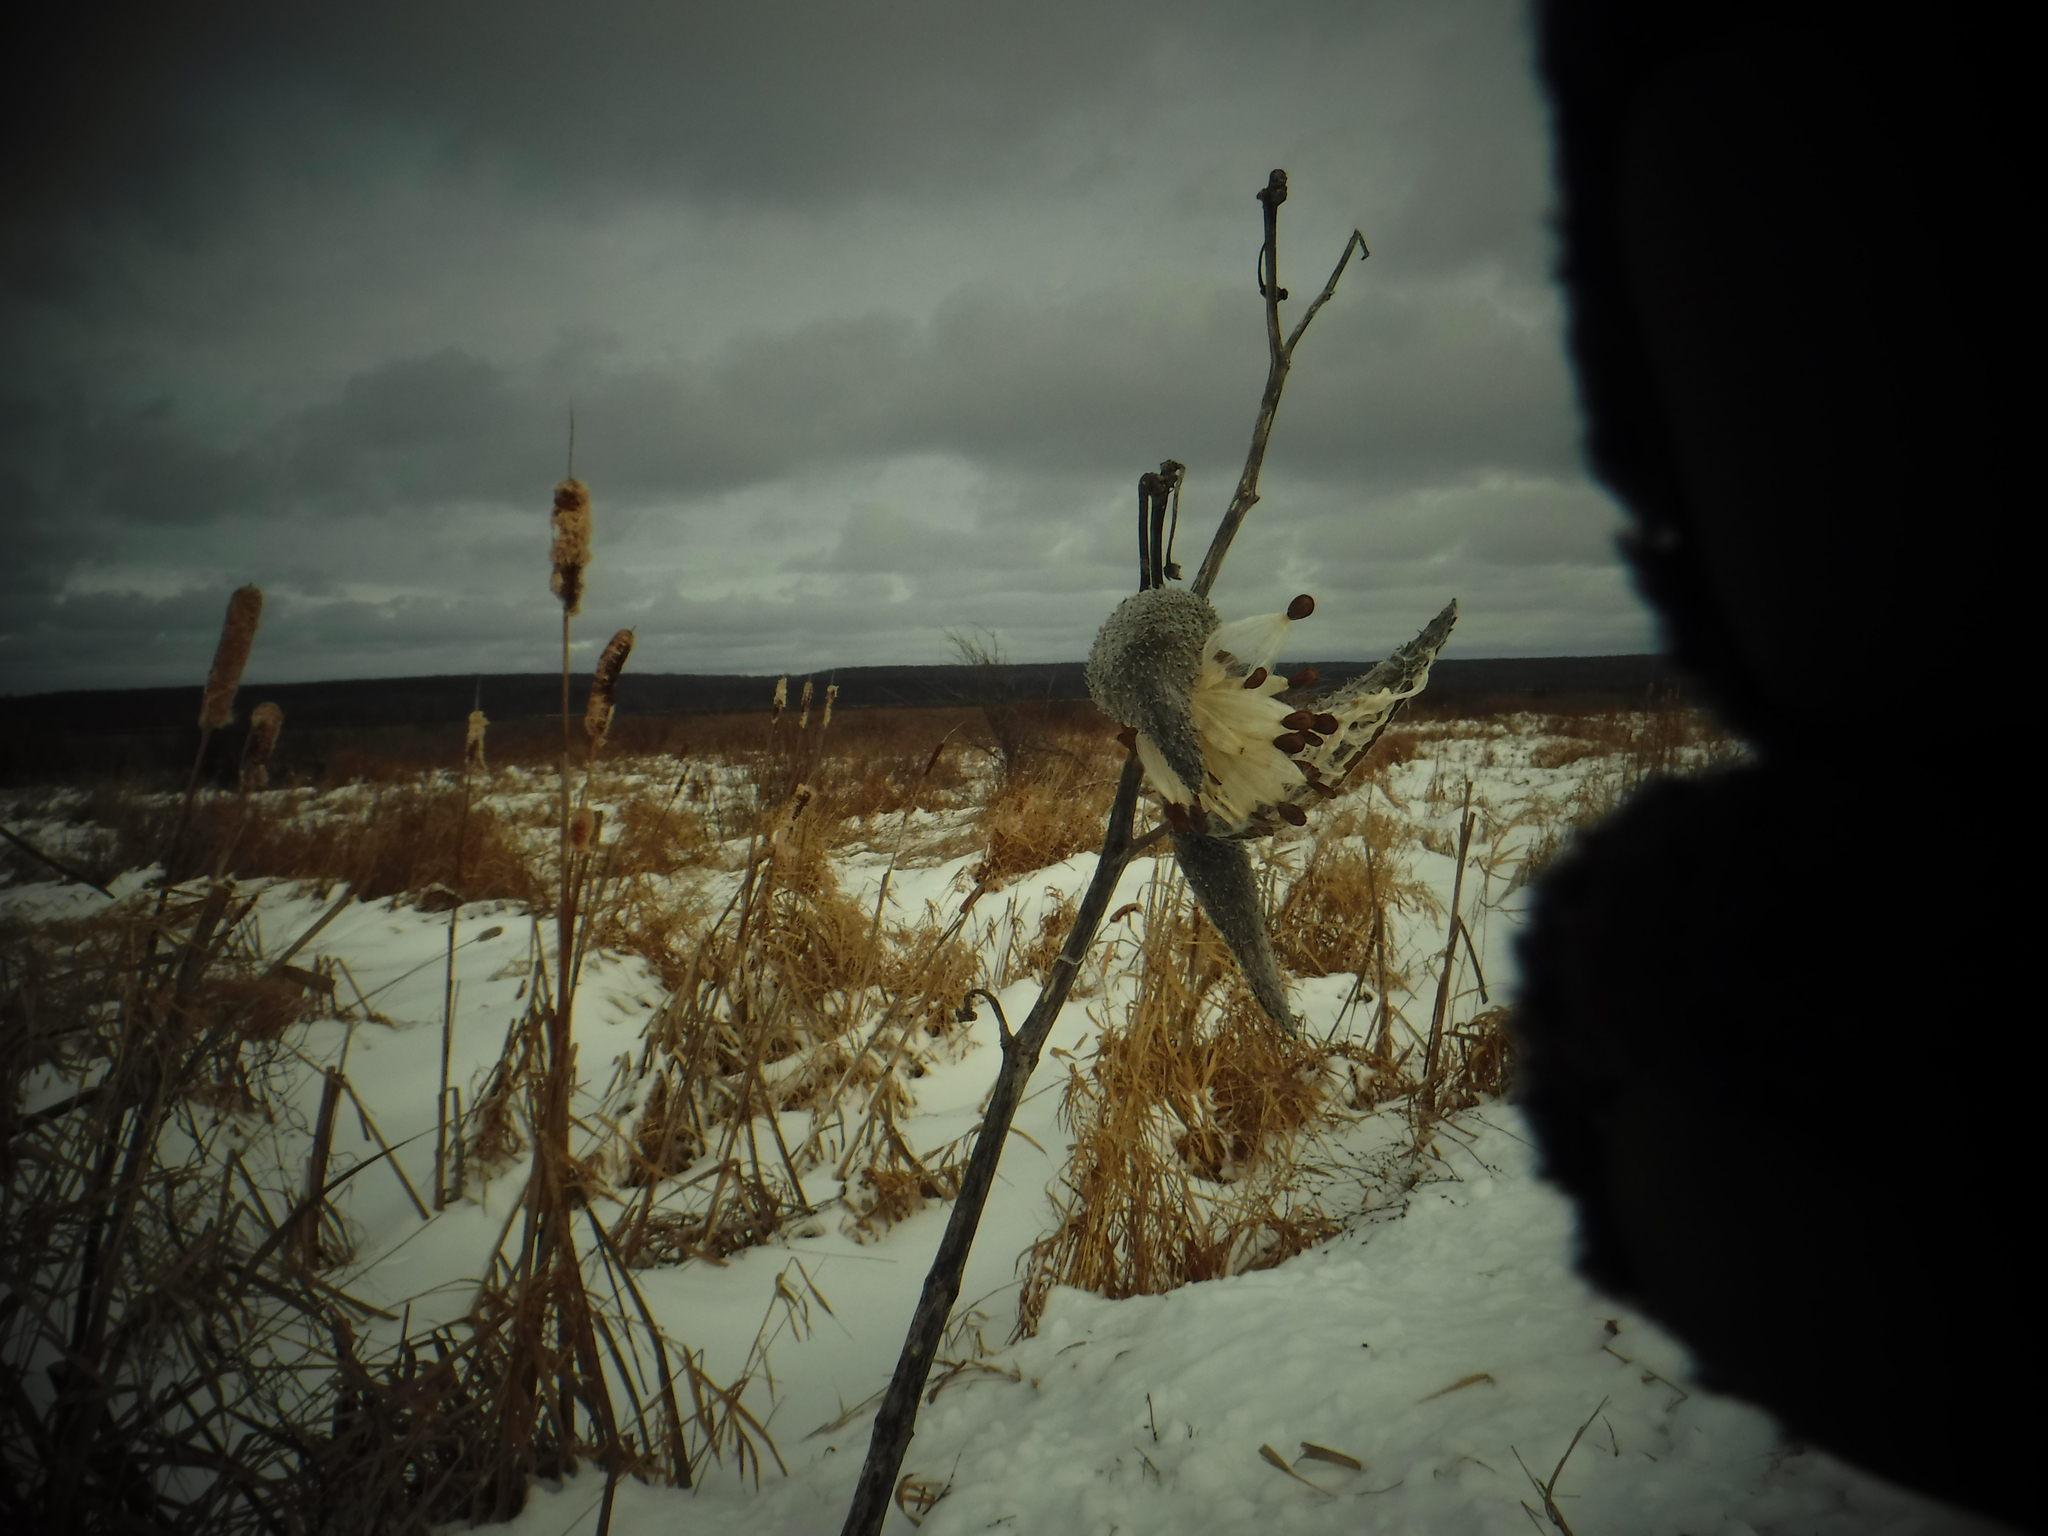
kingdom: Plantae
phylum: Tracheophyta
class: Magnoliopsida
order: Gentianales
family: Apocynaceae
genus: Asclepias
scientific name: Asclepias syriaca
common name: Common milkweed
